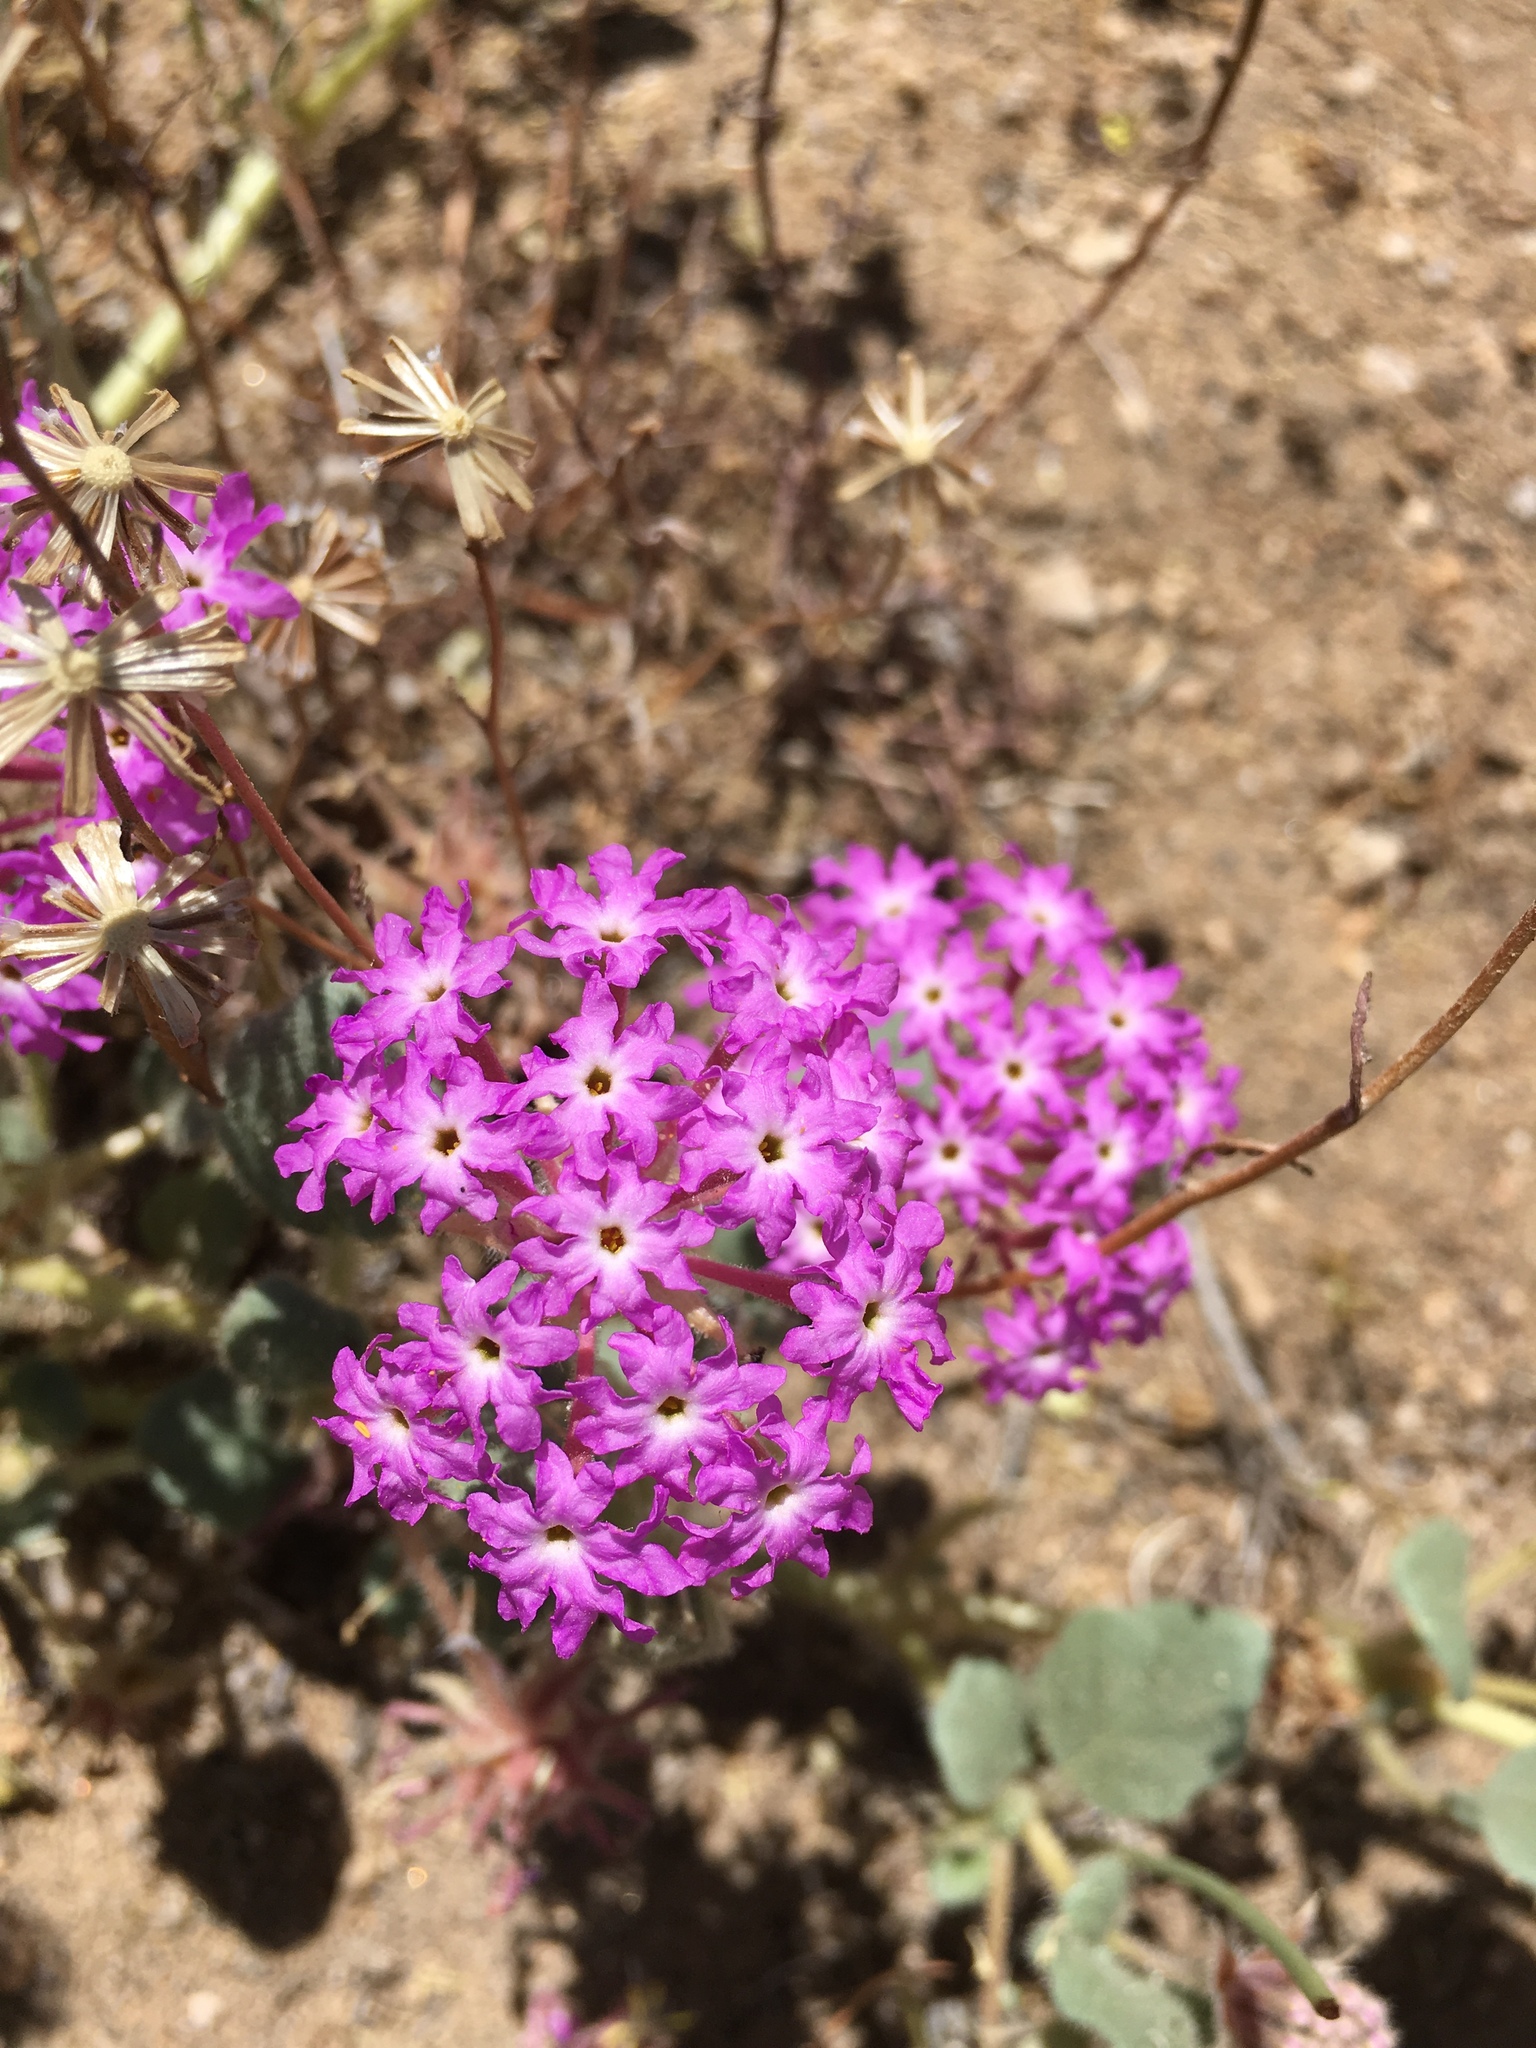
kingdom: Plantae
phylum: Tracheophyta
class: Magnoliopsida
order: Caryophyllales
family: Nyctaginaceae
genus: Abronia
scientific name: Abronia villosa
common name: Desert sand-verbena
